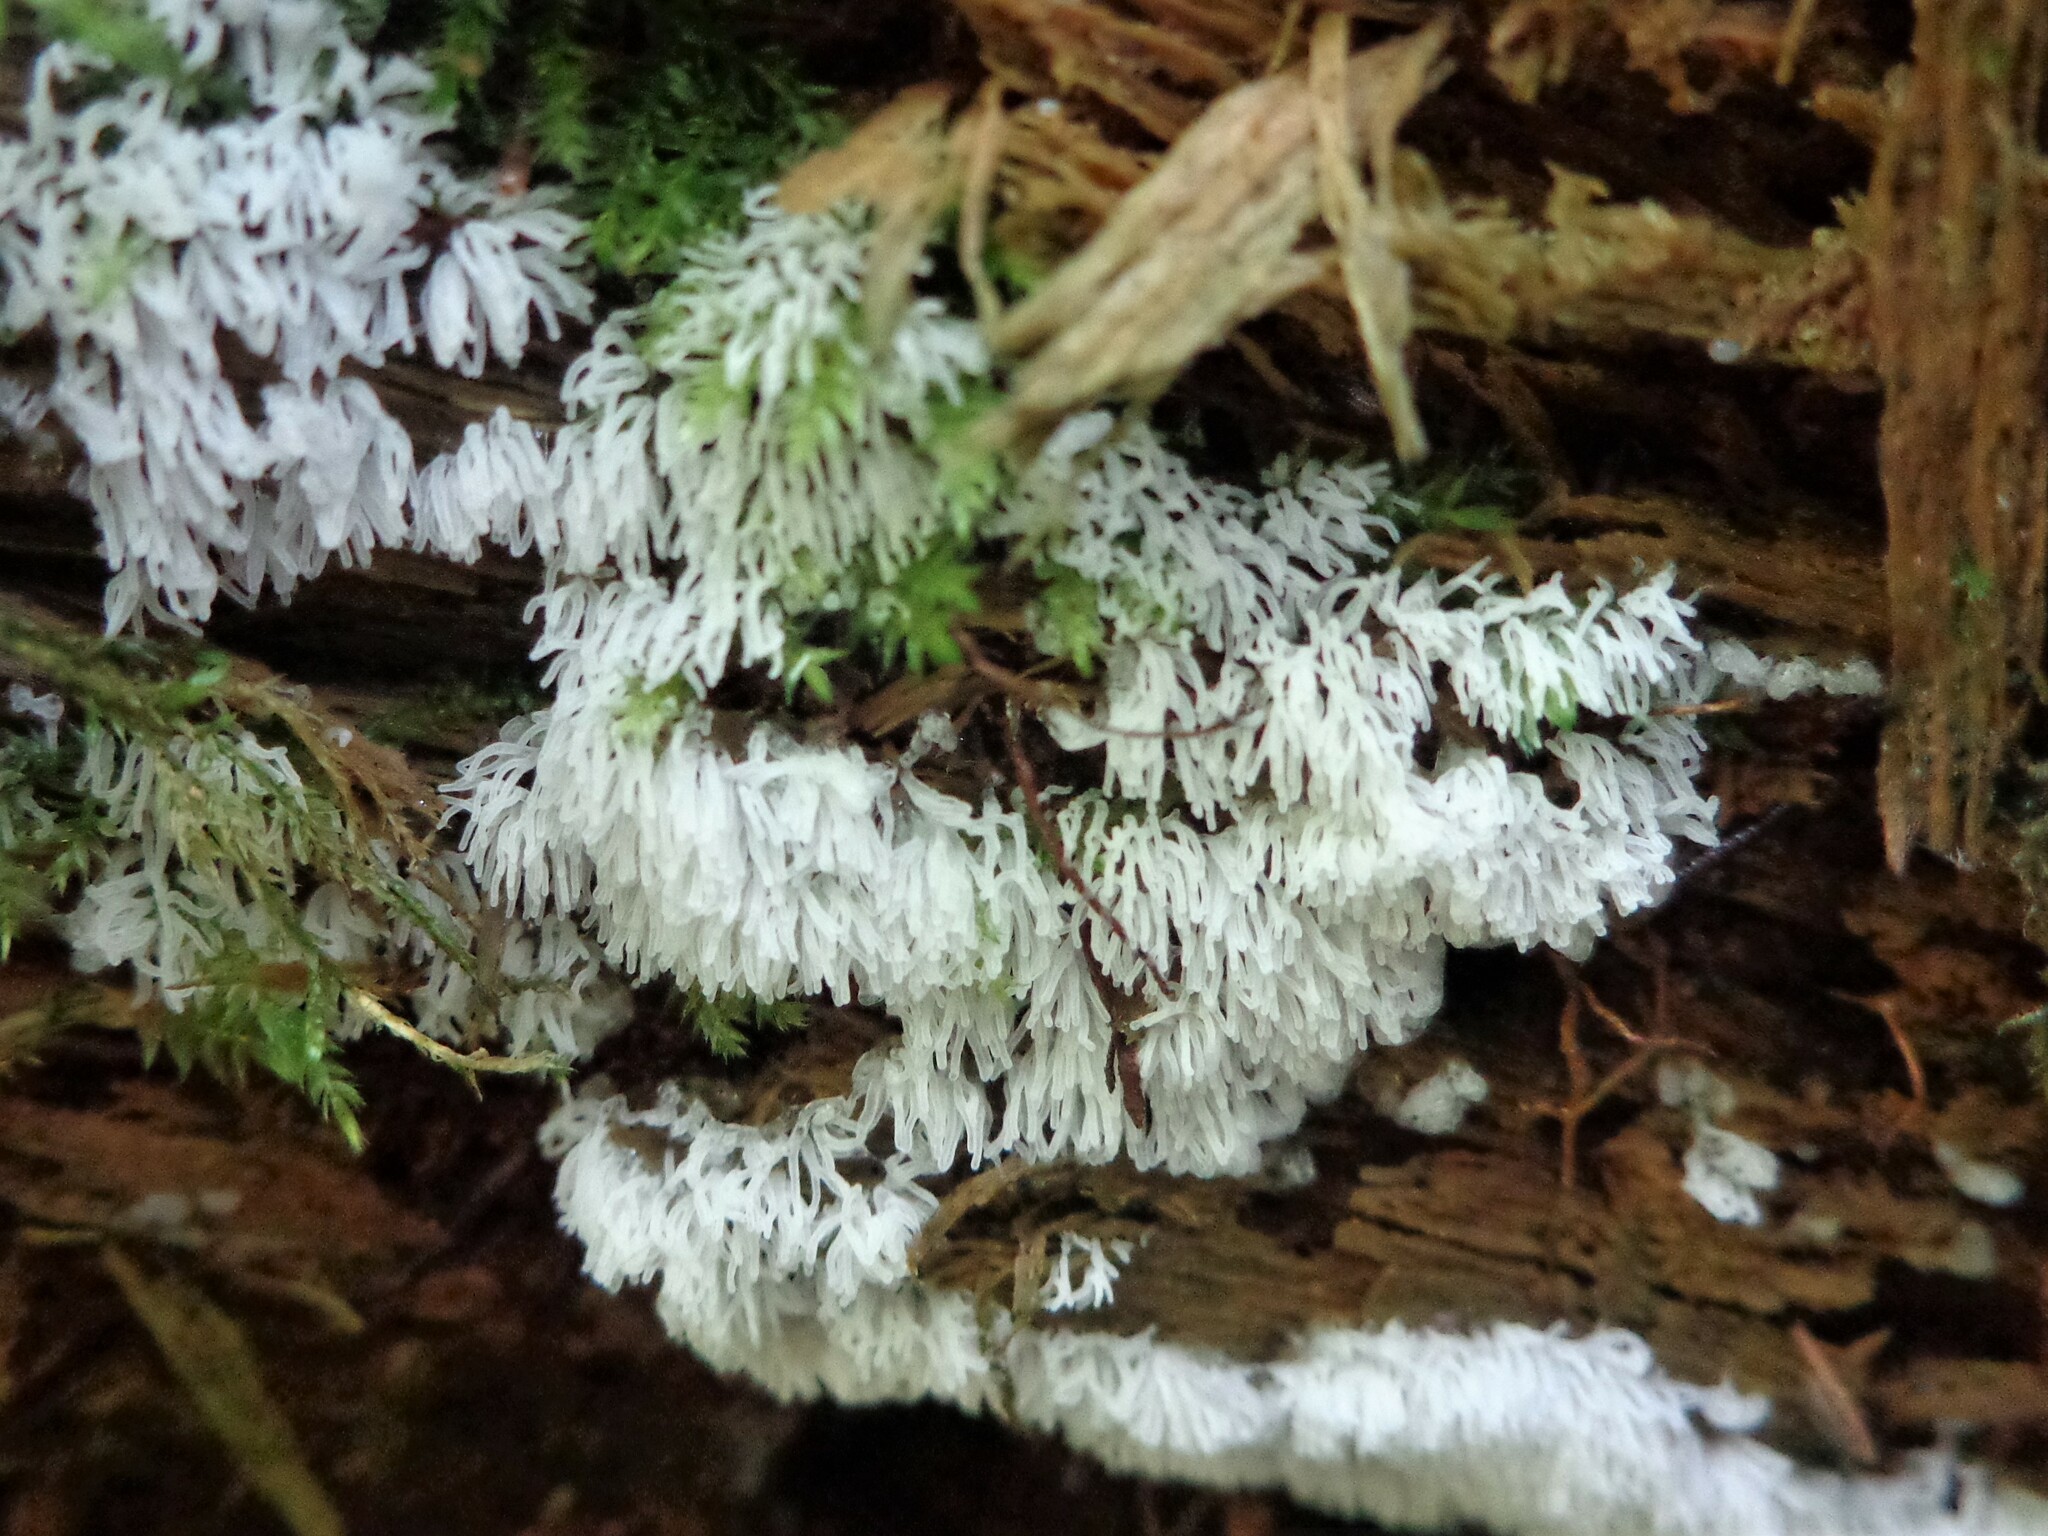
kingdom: Protozoa
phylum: Mycetozoa
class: Protosteliomycetes
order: Ceratiomyxales
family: Ceratiomyxaceae
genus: Ceratiomyxa
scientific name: Ceratiomyxa fruticulosa
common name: Honeycomb coral slime mold
